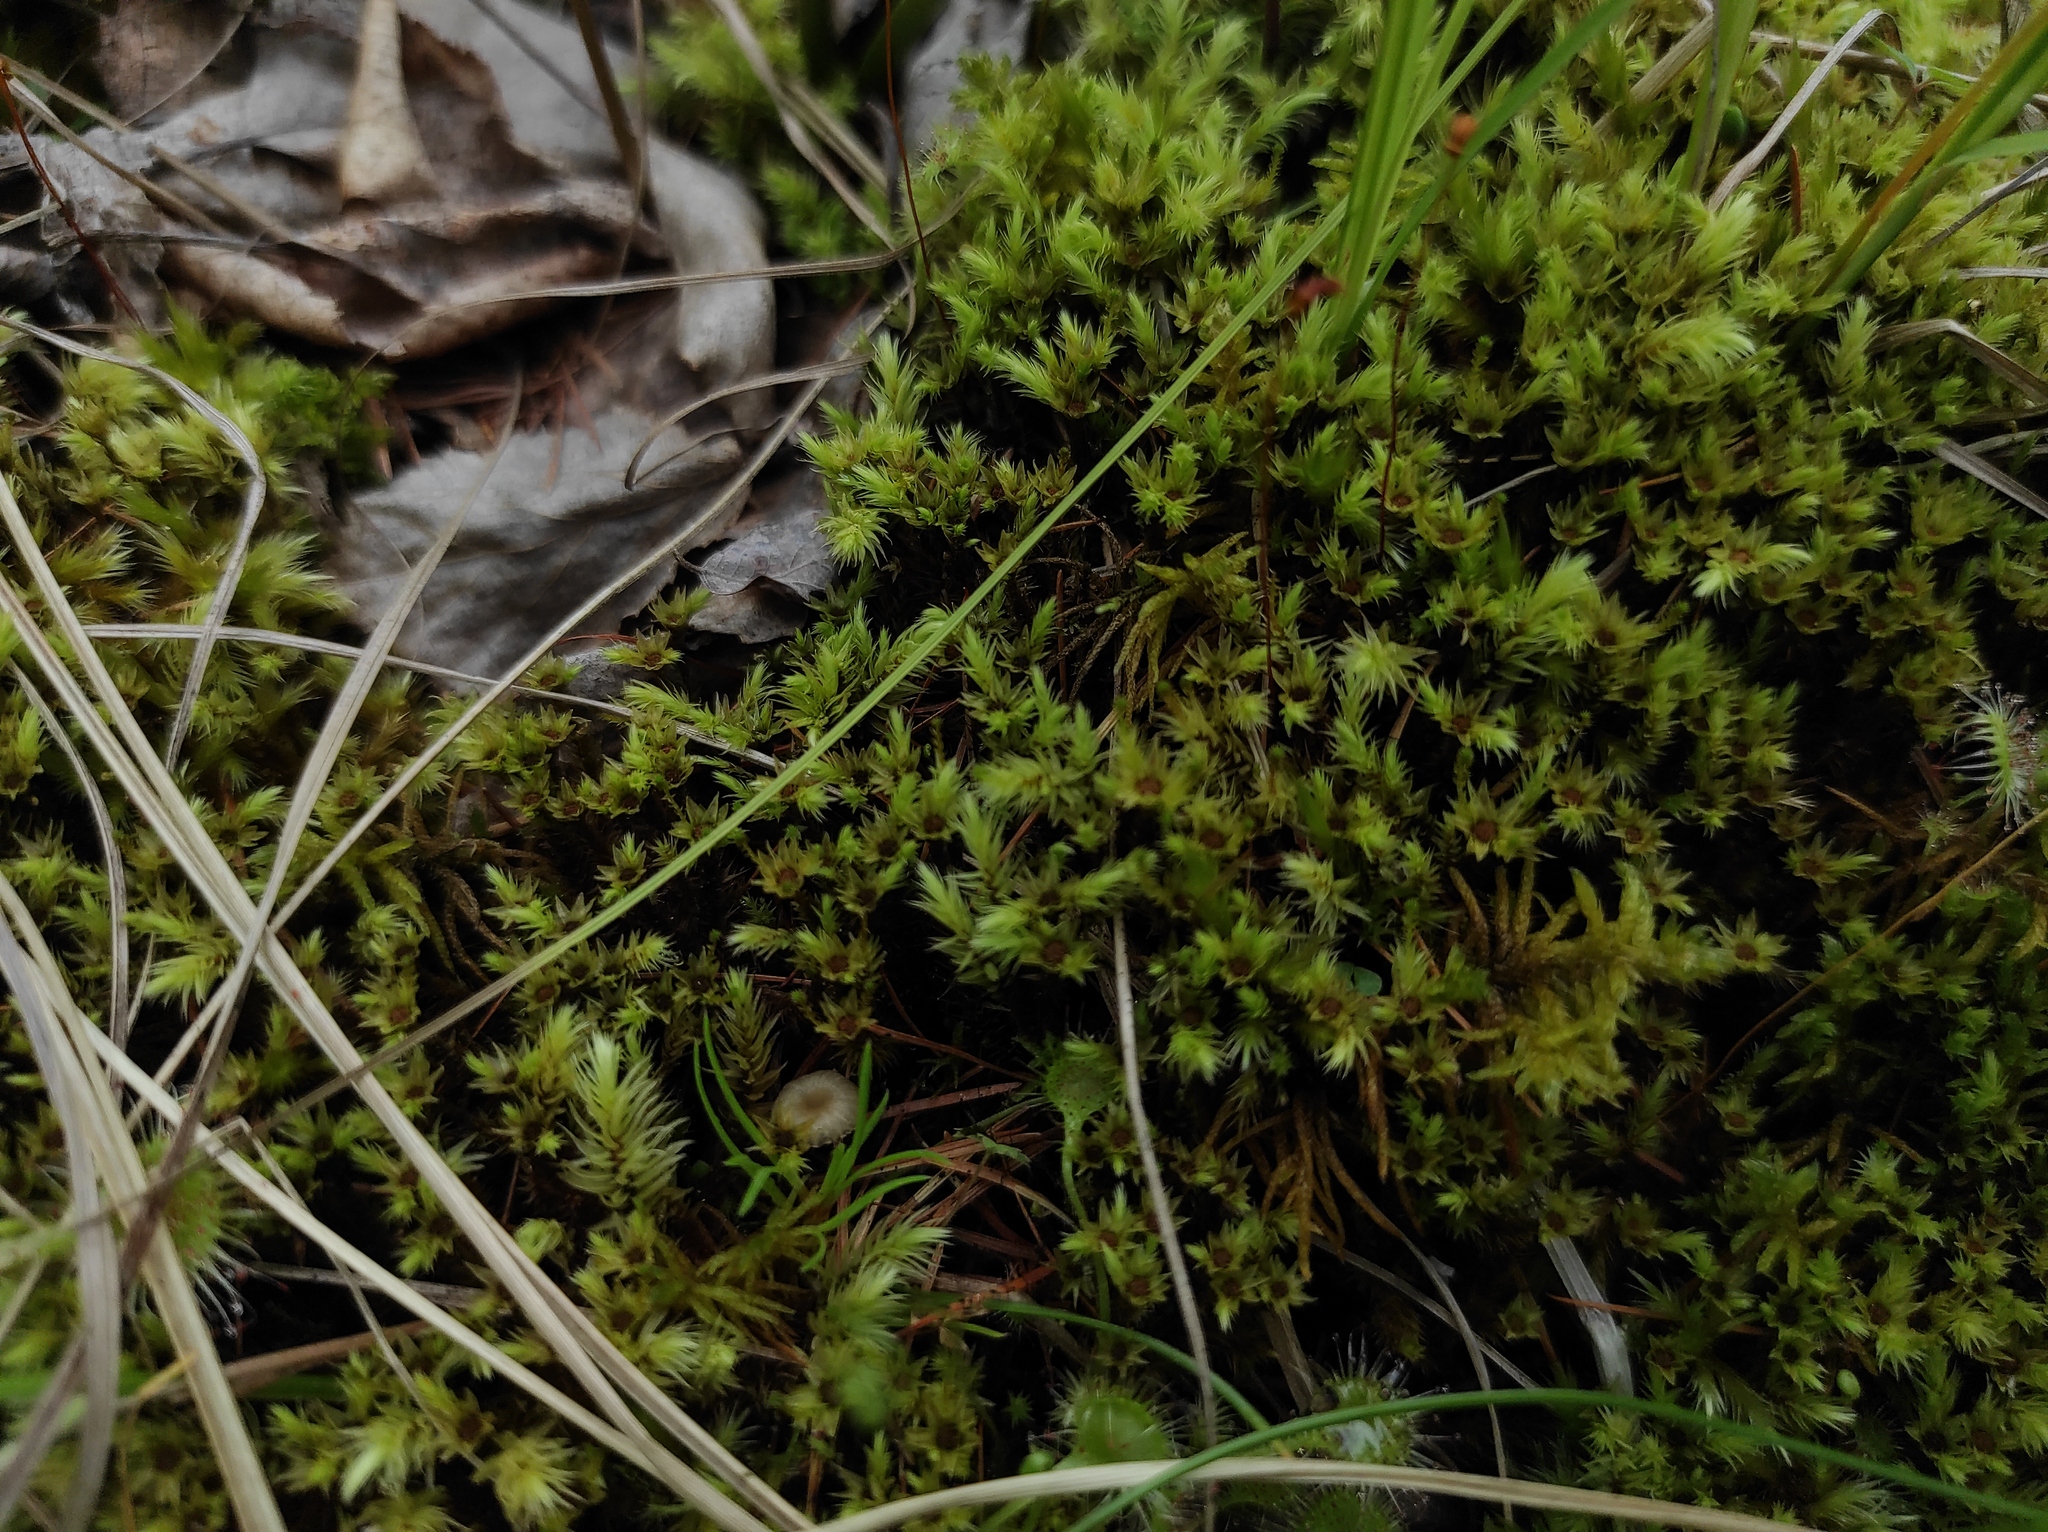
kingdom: Plantae
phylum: Tracheophyta
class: Magnoliopsida
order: Caryophyllales
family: Droseraceae
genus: Drosera
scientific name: Drosera rotundifolia
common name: Round-leaved sundew
